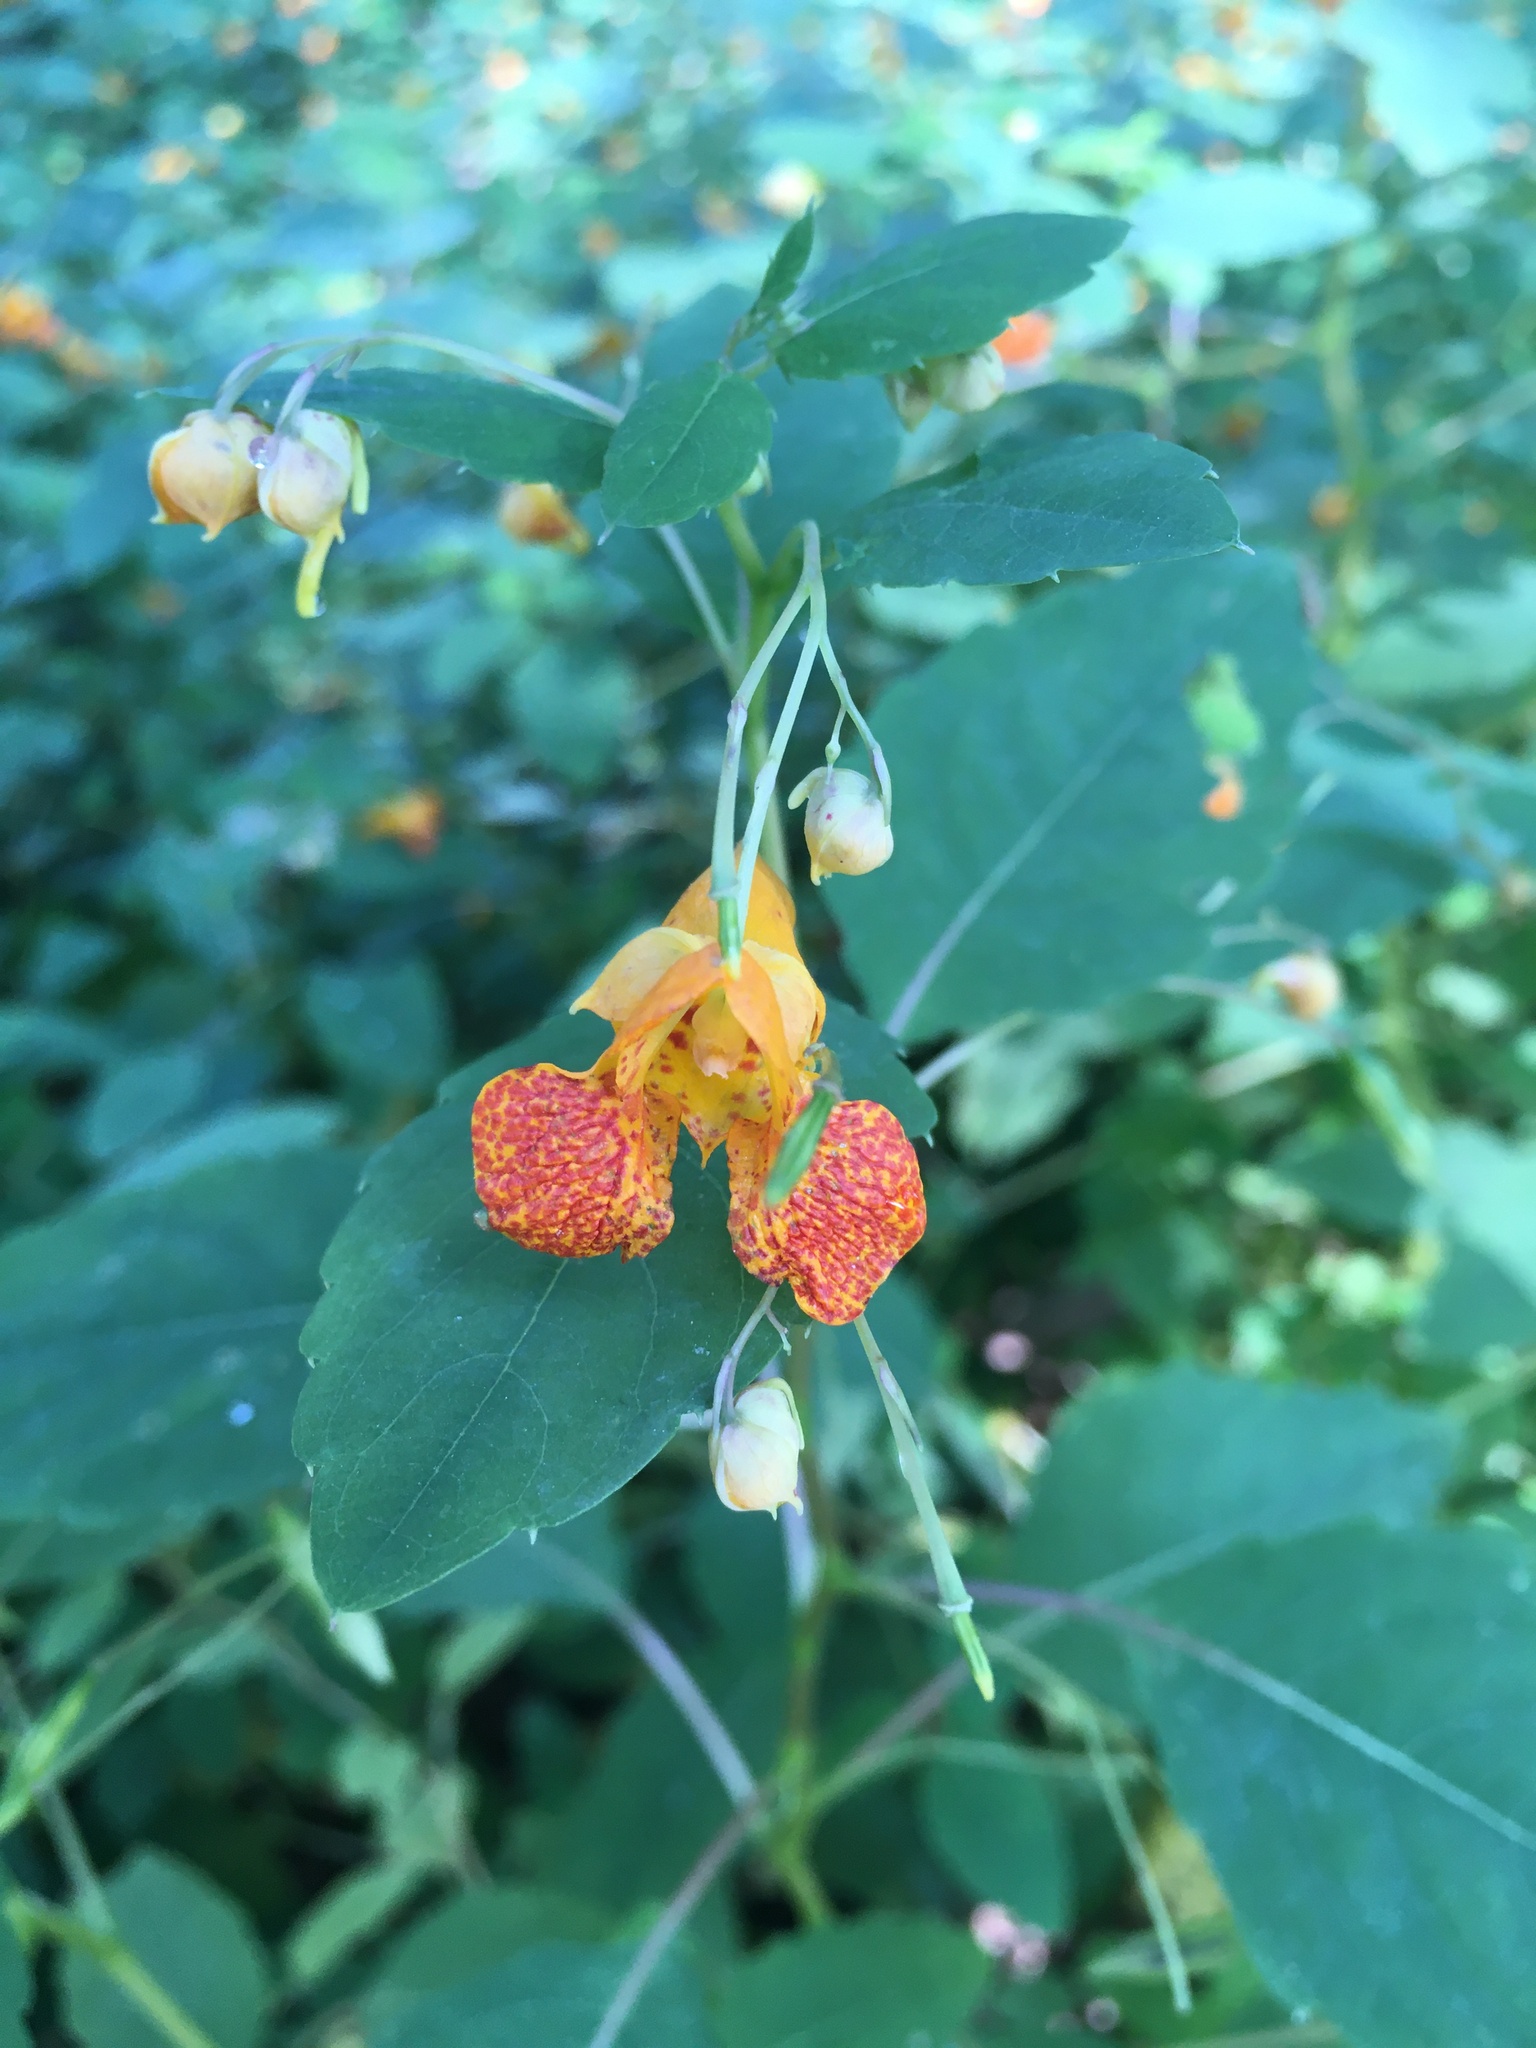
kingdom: Plantae
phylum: Tracheophyta
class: Magnoliopsida
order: Ericales
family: Balsaminaceae
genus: Impatiens
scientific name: Impatiens capensis
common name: Orange balsam
